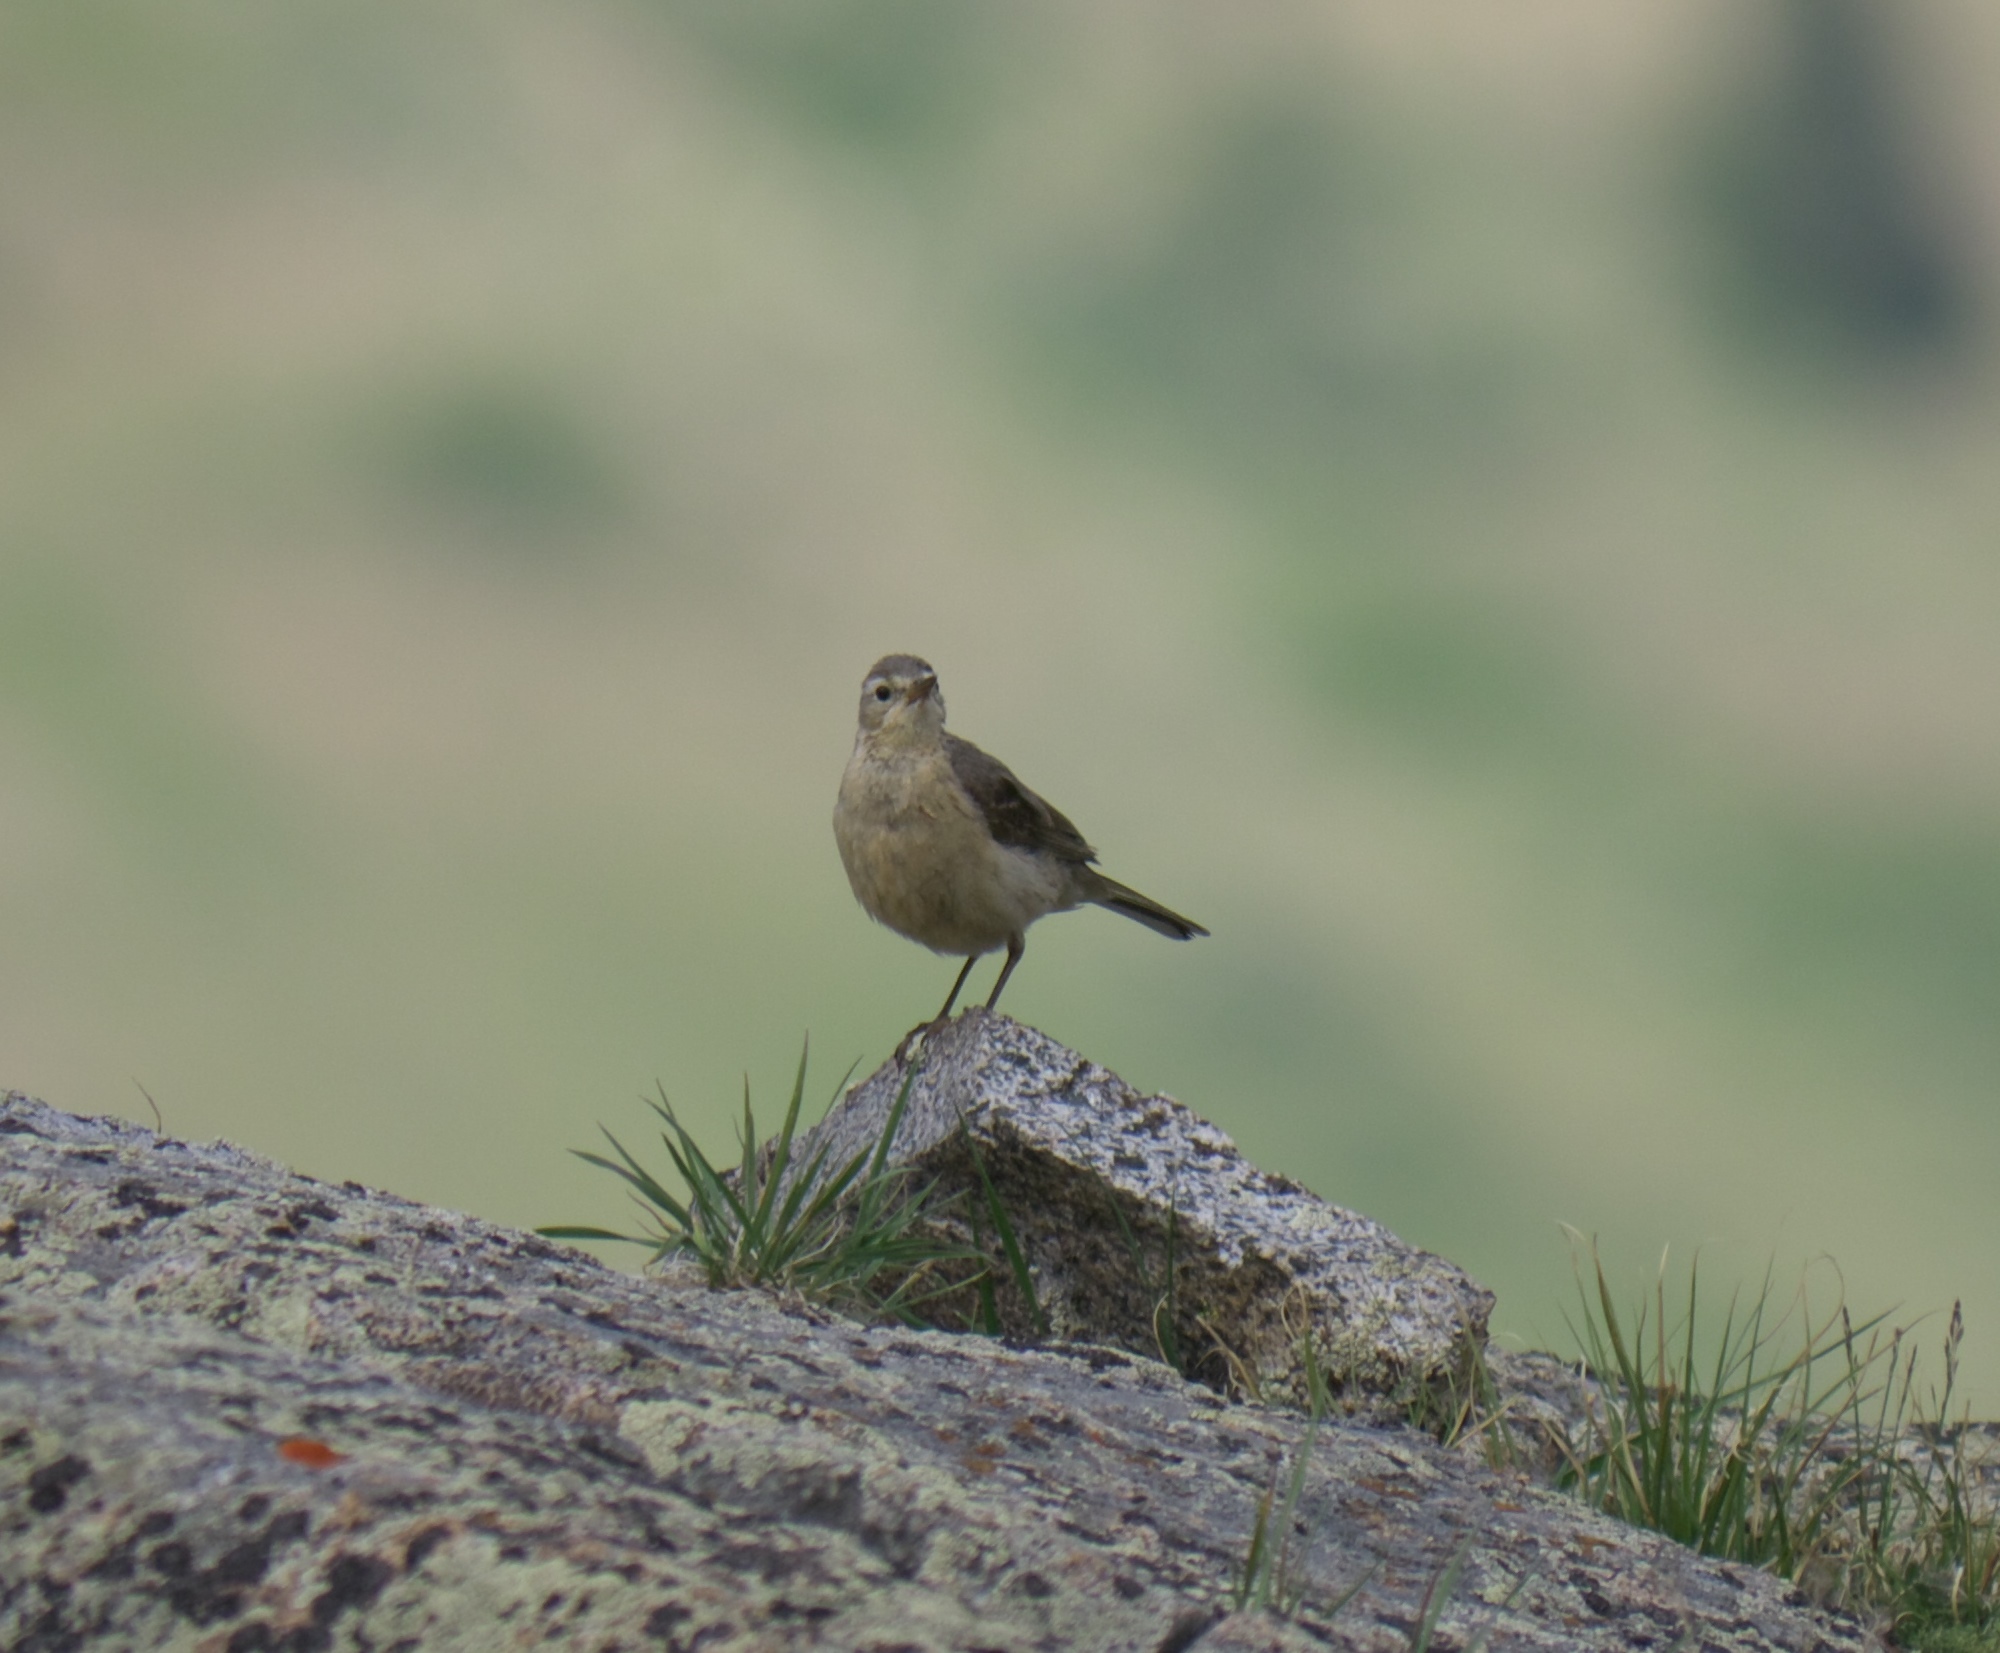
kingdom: Animalia
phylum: Chordata
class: Aves
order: Passeriformes
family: Motacillidae
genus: Anthus
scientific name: Anthus rubescens
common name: Buff-bellied pipit
